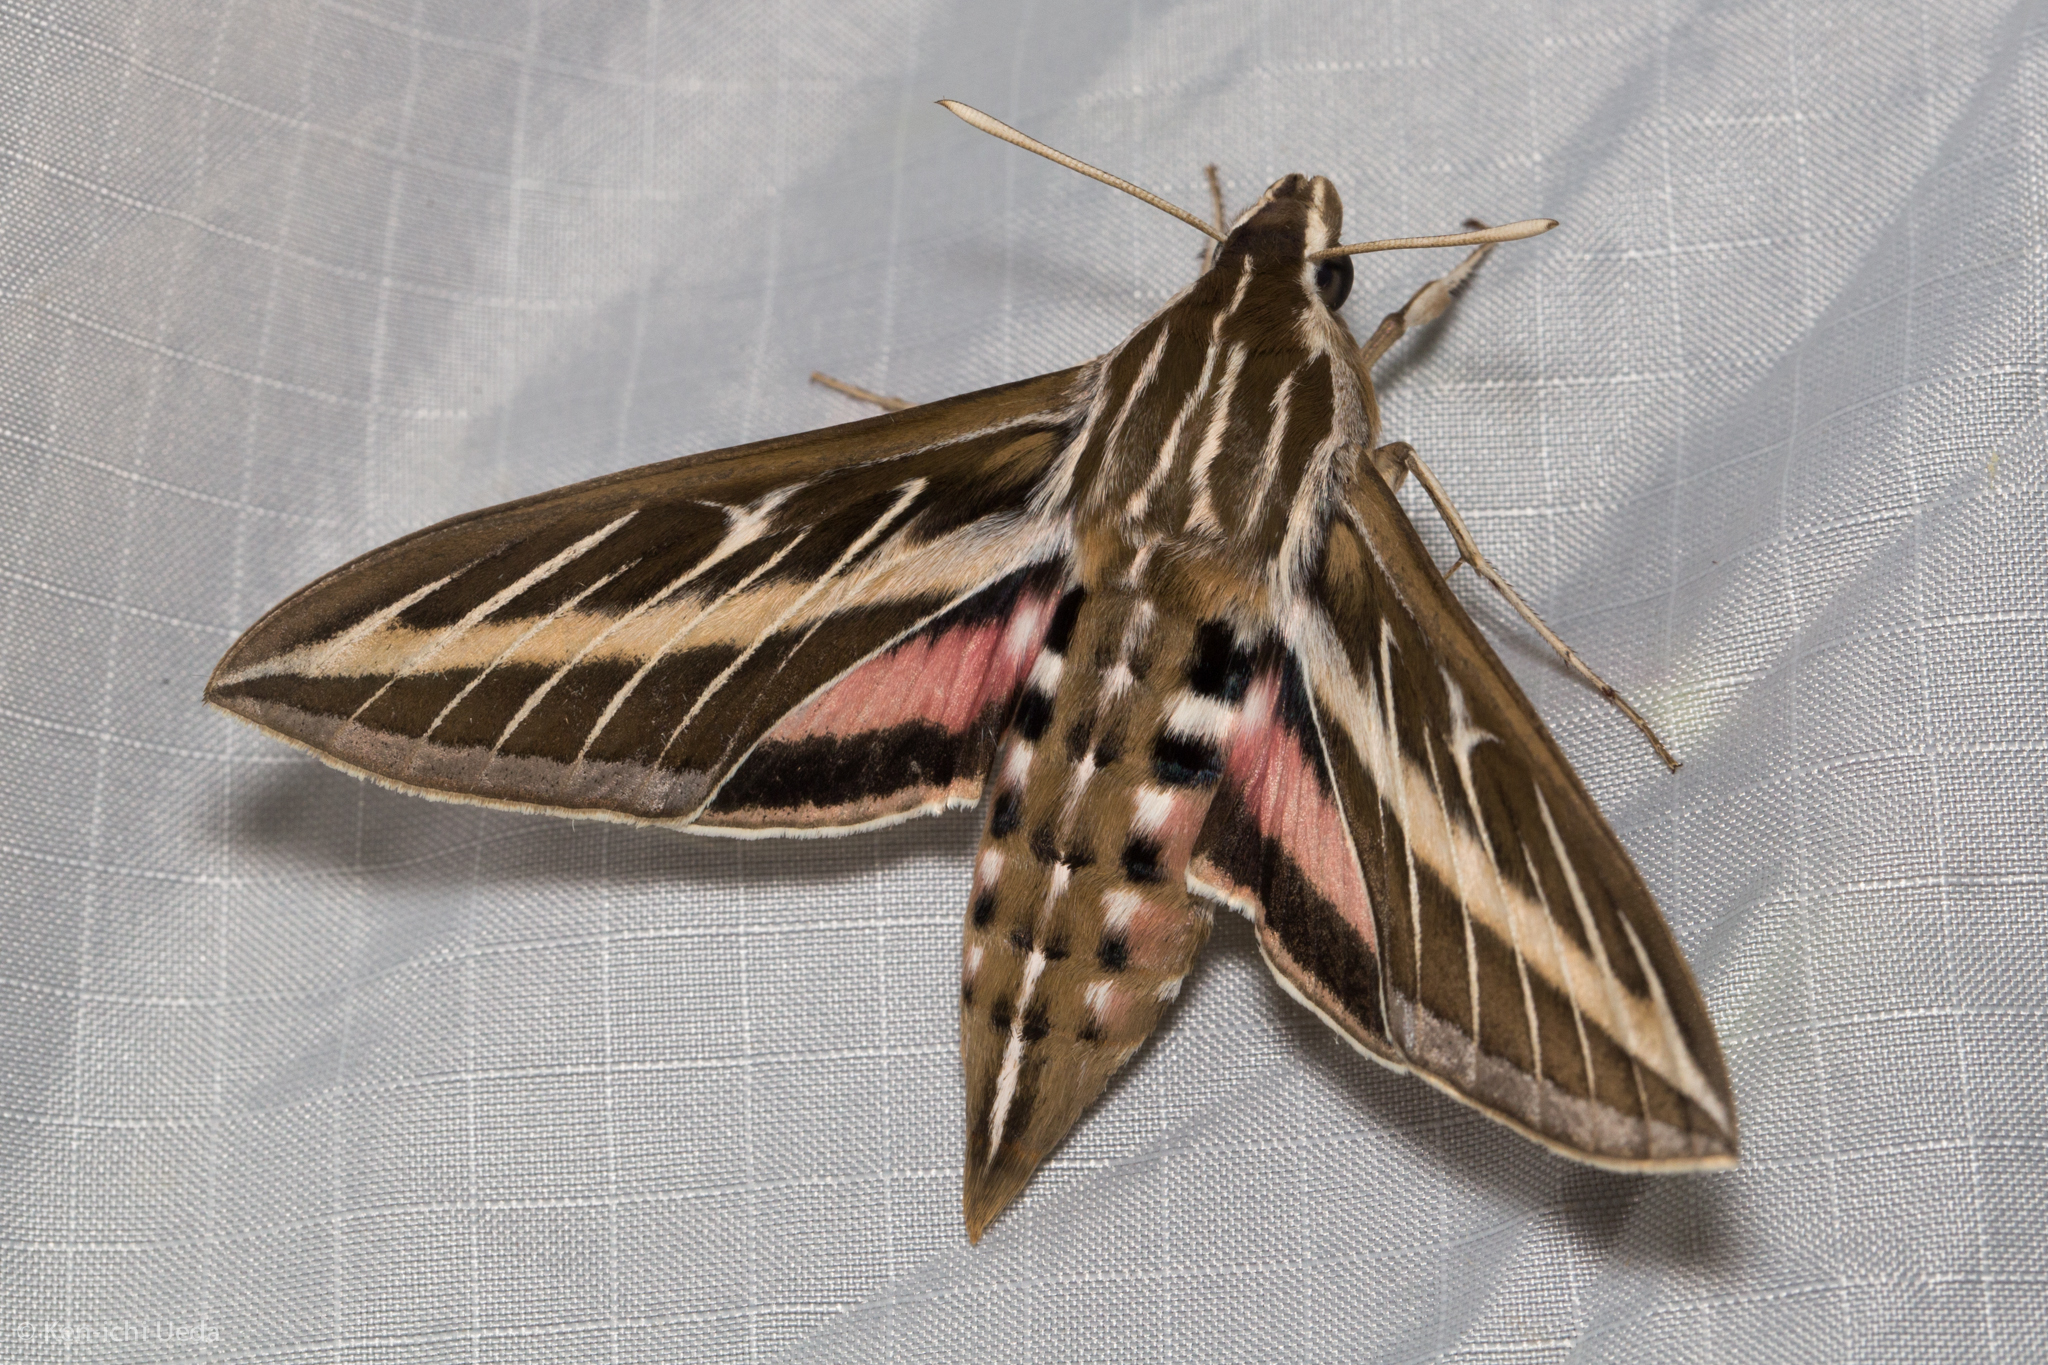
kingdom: Animalia
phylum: Arthropoda
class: Insecta
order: Lepidoptera
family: Sphingidae
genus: Hyles
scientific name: Hyles lineata
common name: White-lined sphinx
